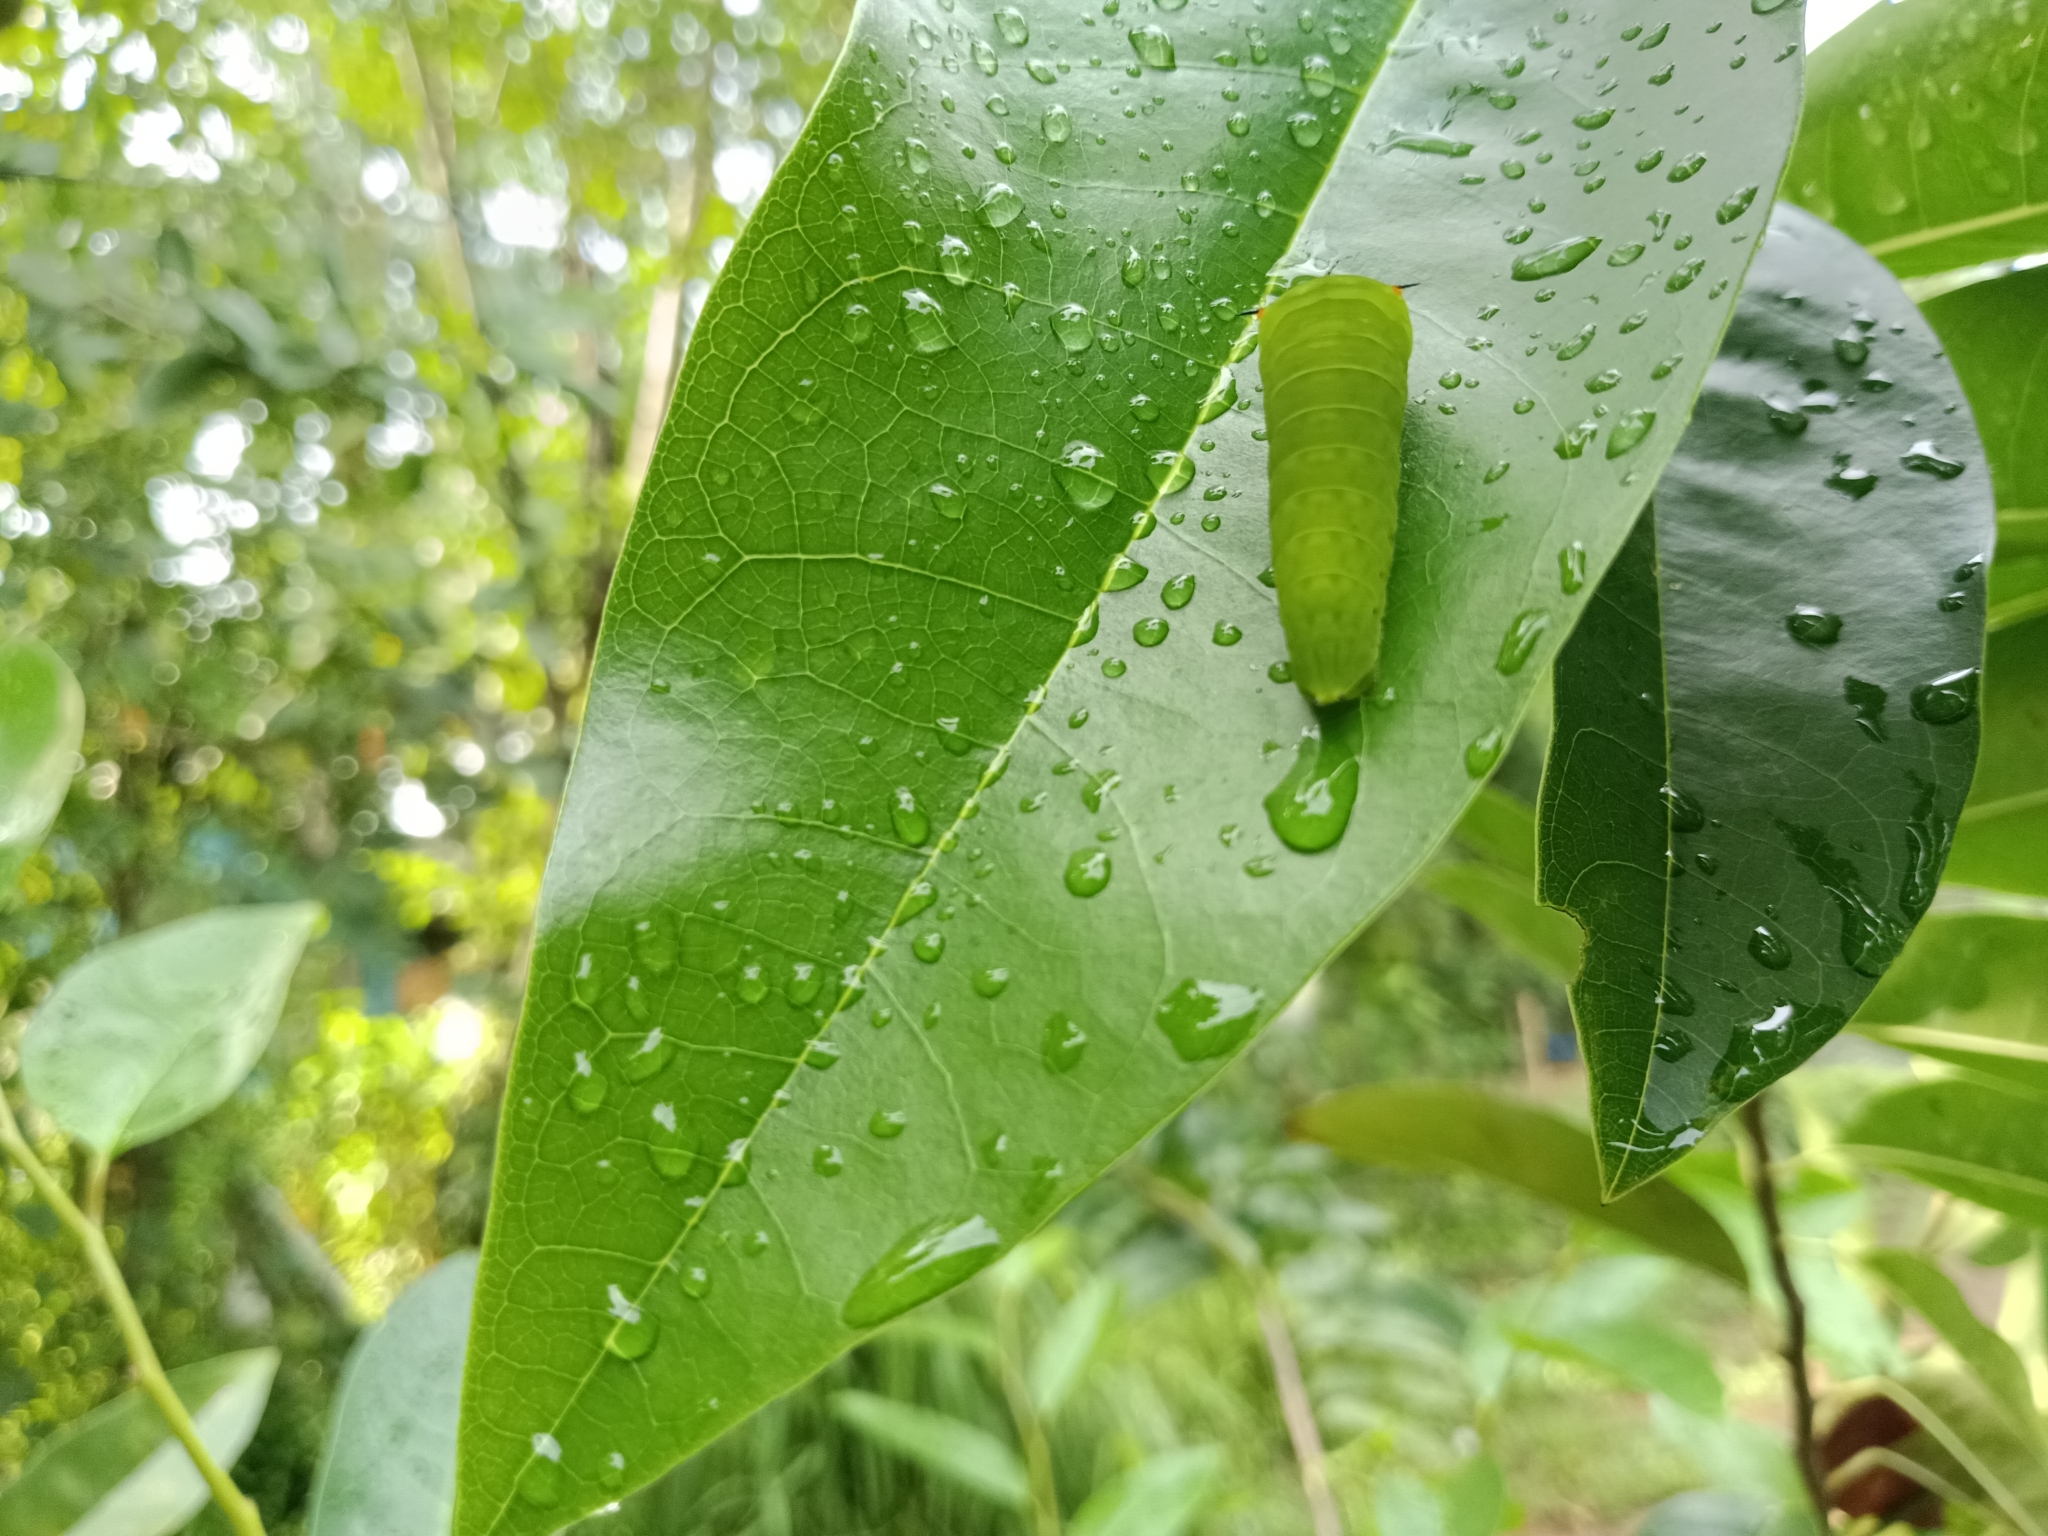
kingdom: Animalia
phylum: Arthropoda
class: Insecta
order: Lepidoptera
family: Papilionidae
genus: Graphium
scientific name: Graphium agamemnon
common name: Tailed jay
